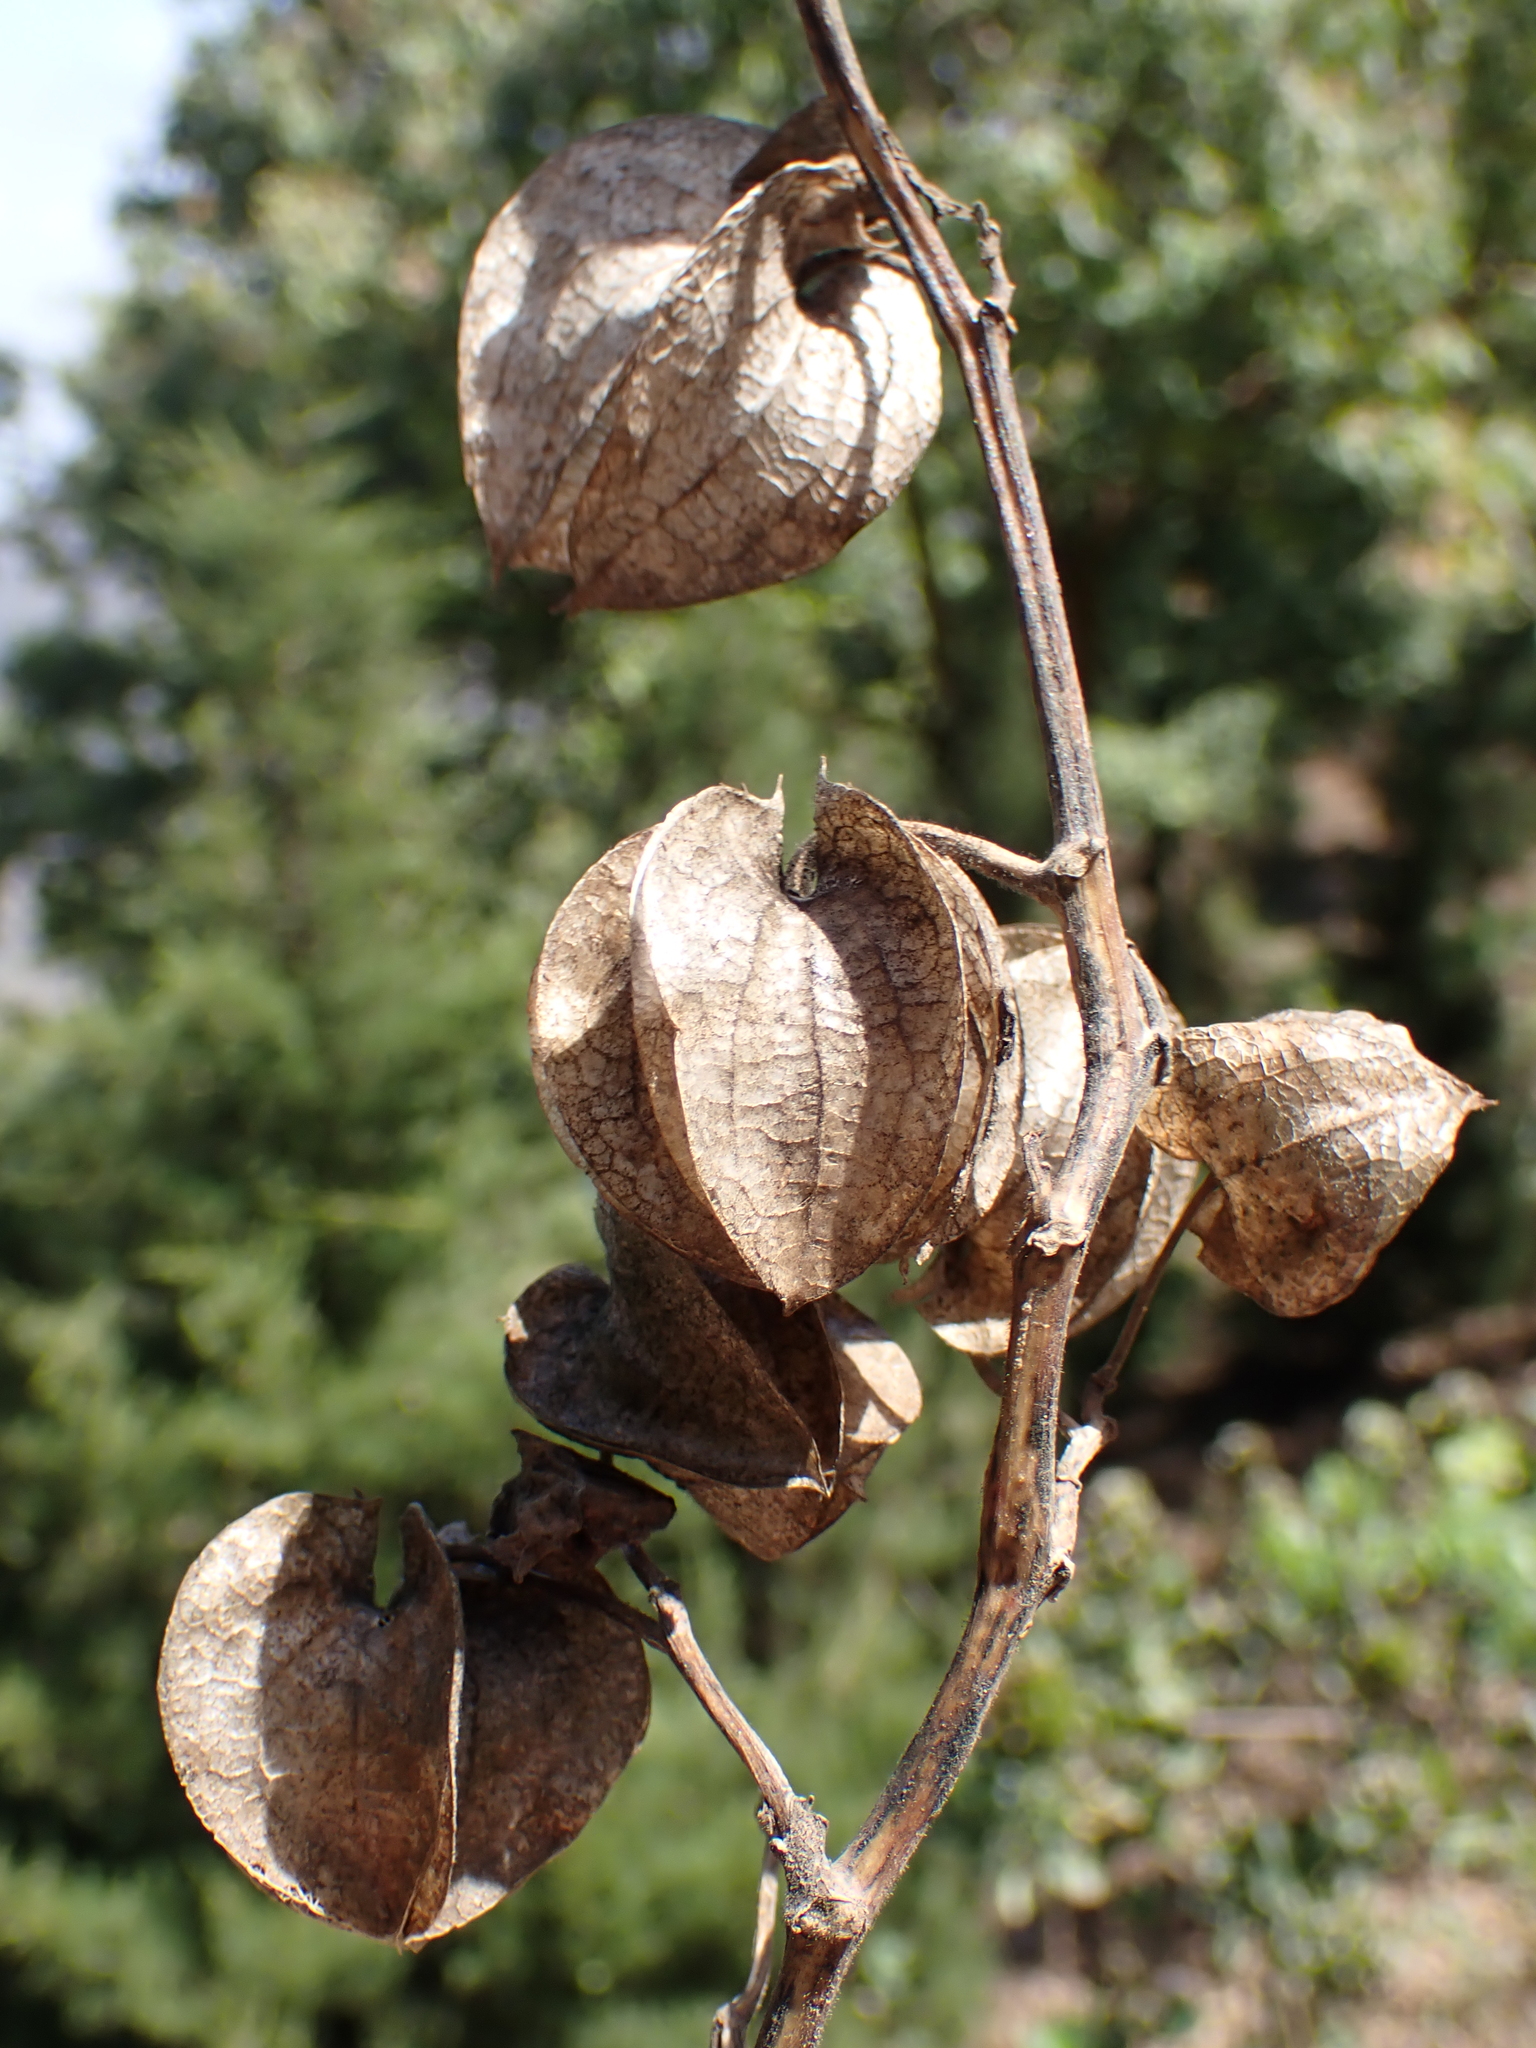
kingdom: Plantae
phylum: Tracheophyta
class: Magnoliopsida
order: Solanales
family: Solanaceae
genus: Nicandra
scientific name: Nicandra physalodes
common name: Apple-of-peru
